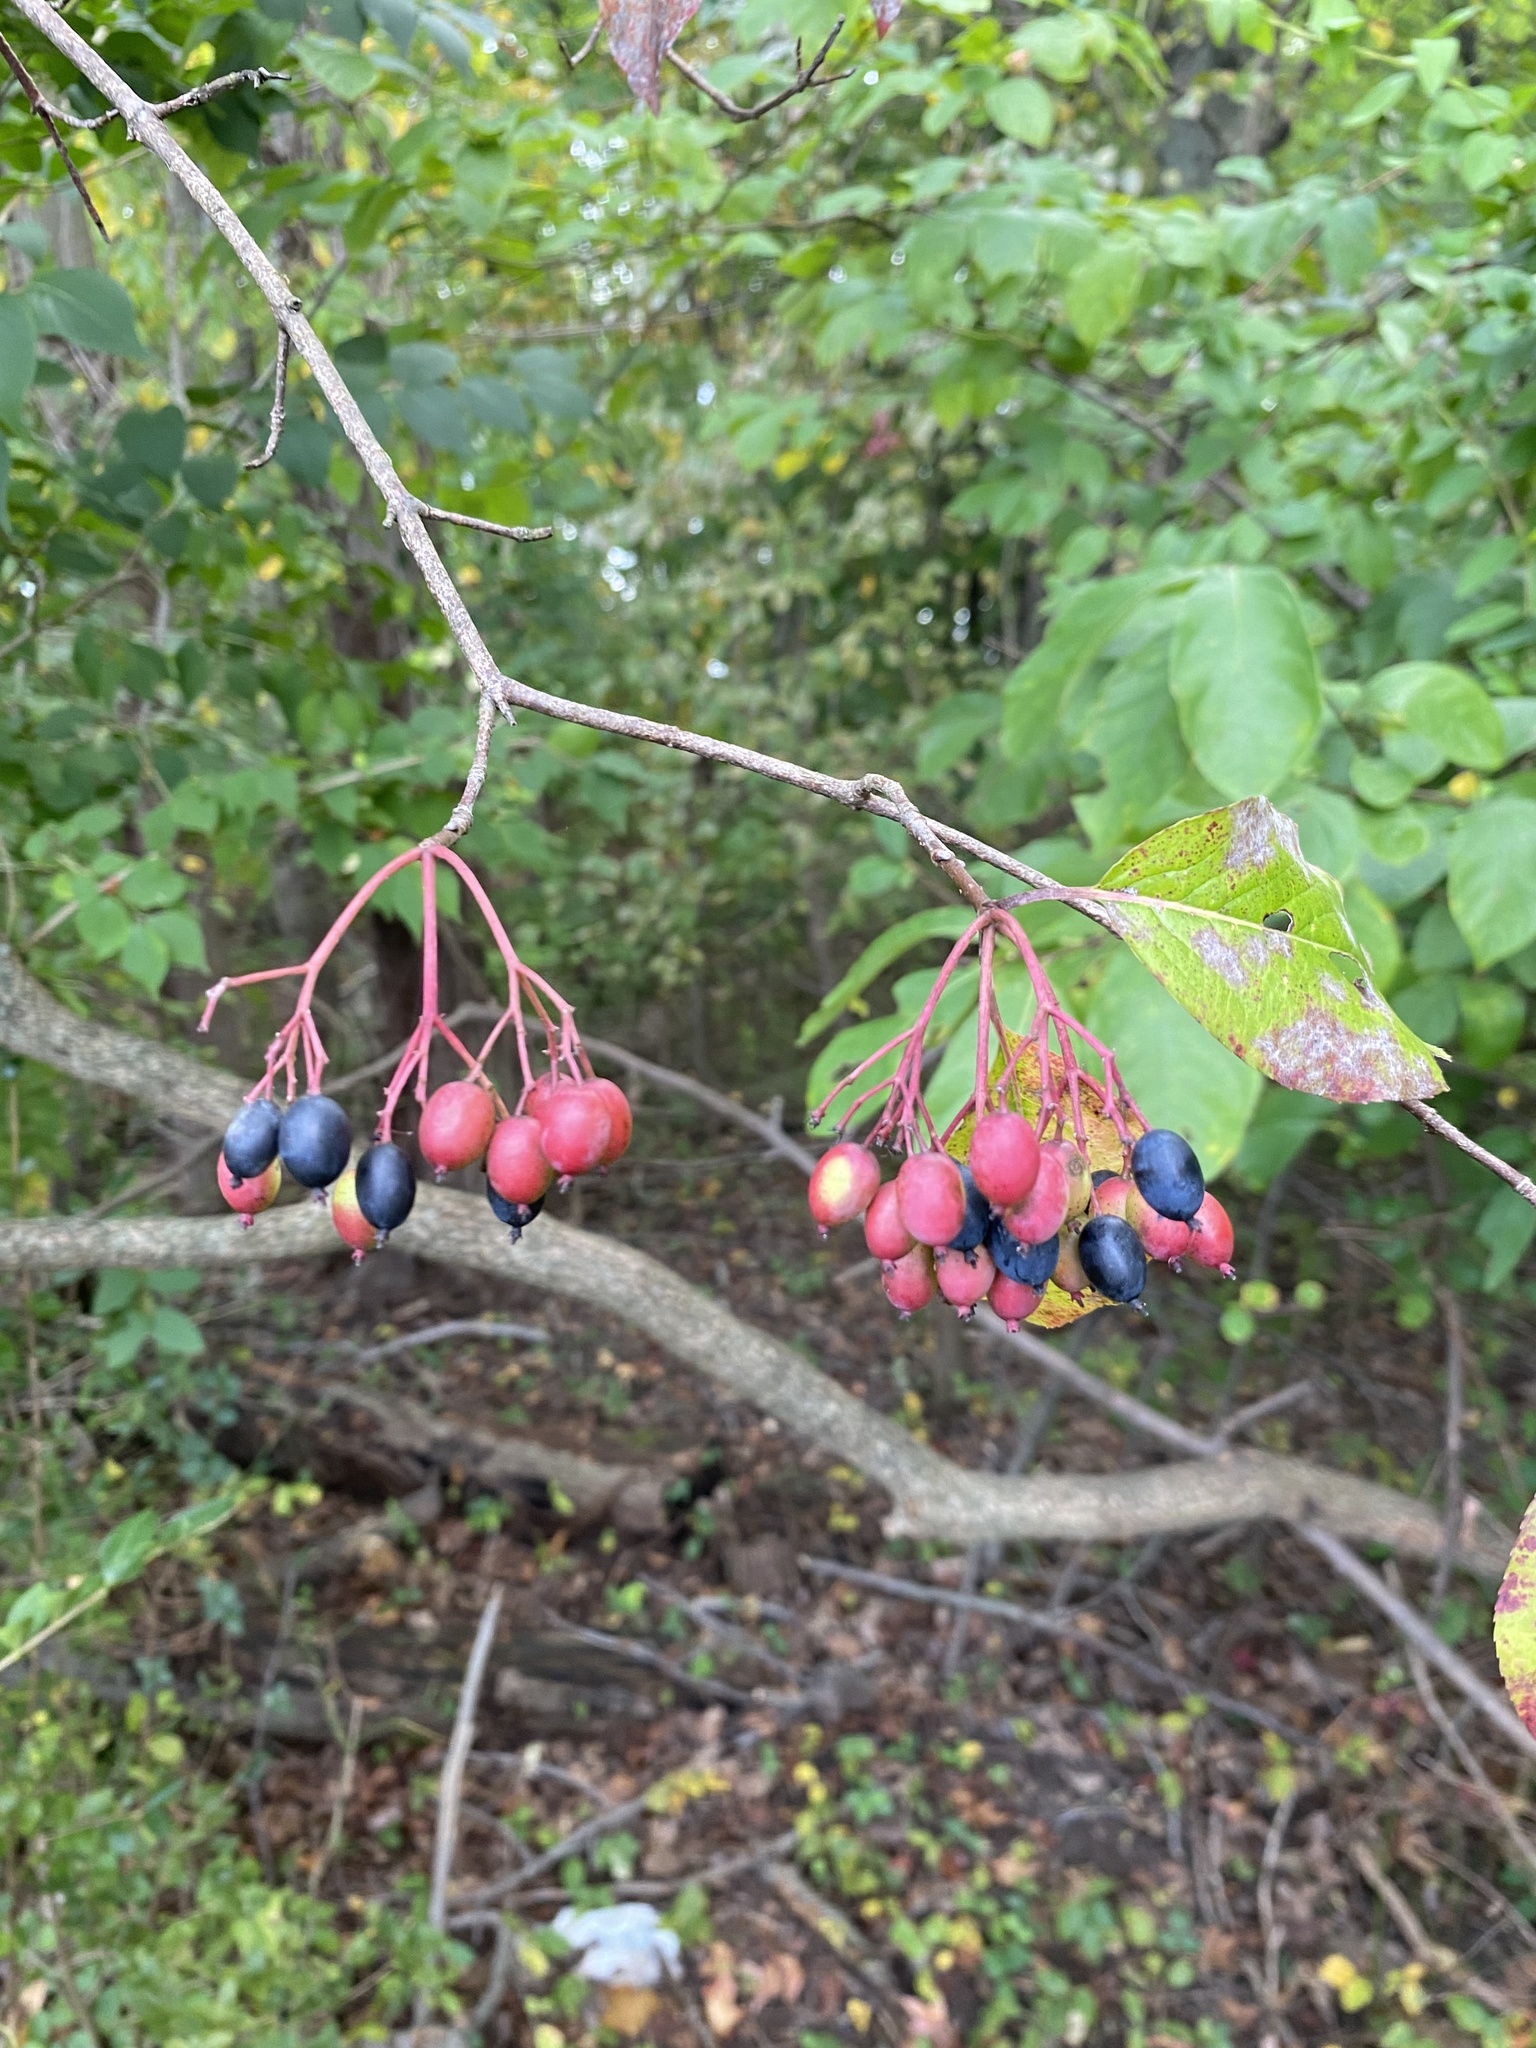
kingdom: Plantae
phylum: Tracheophyta
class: Magnoliopsida
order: Dipsacales
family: Viburnaceae
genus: Viburnum
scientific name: Viburnum prunifolium
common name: Black haw
